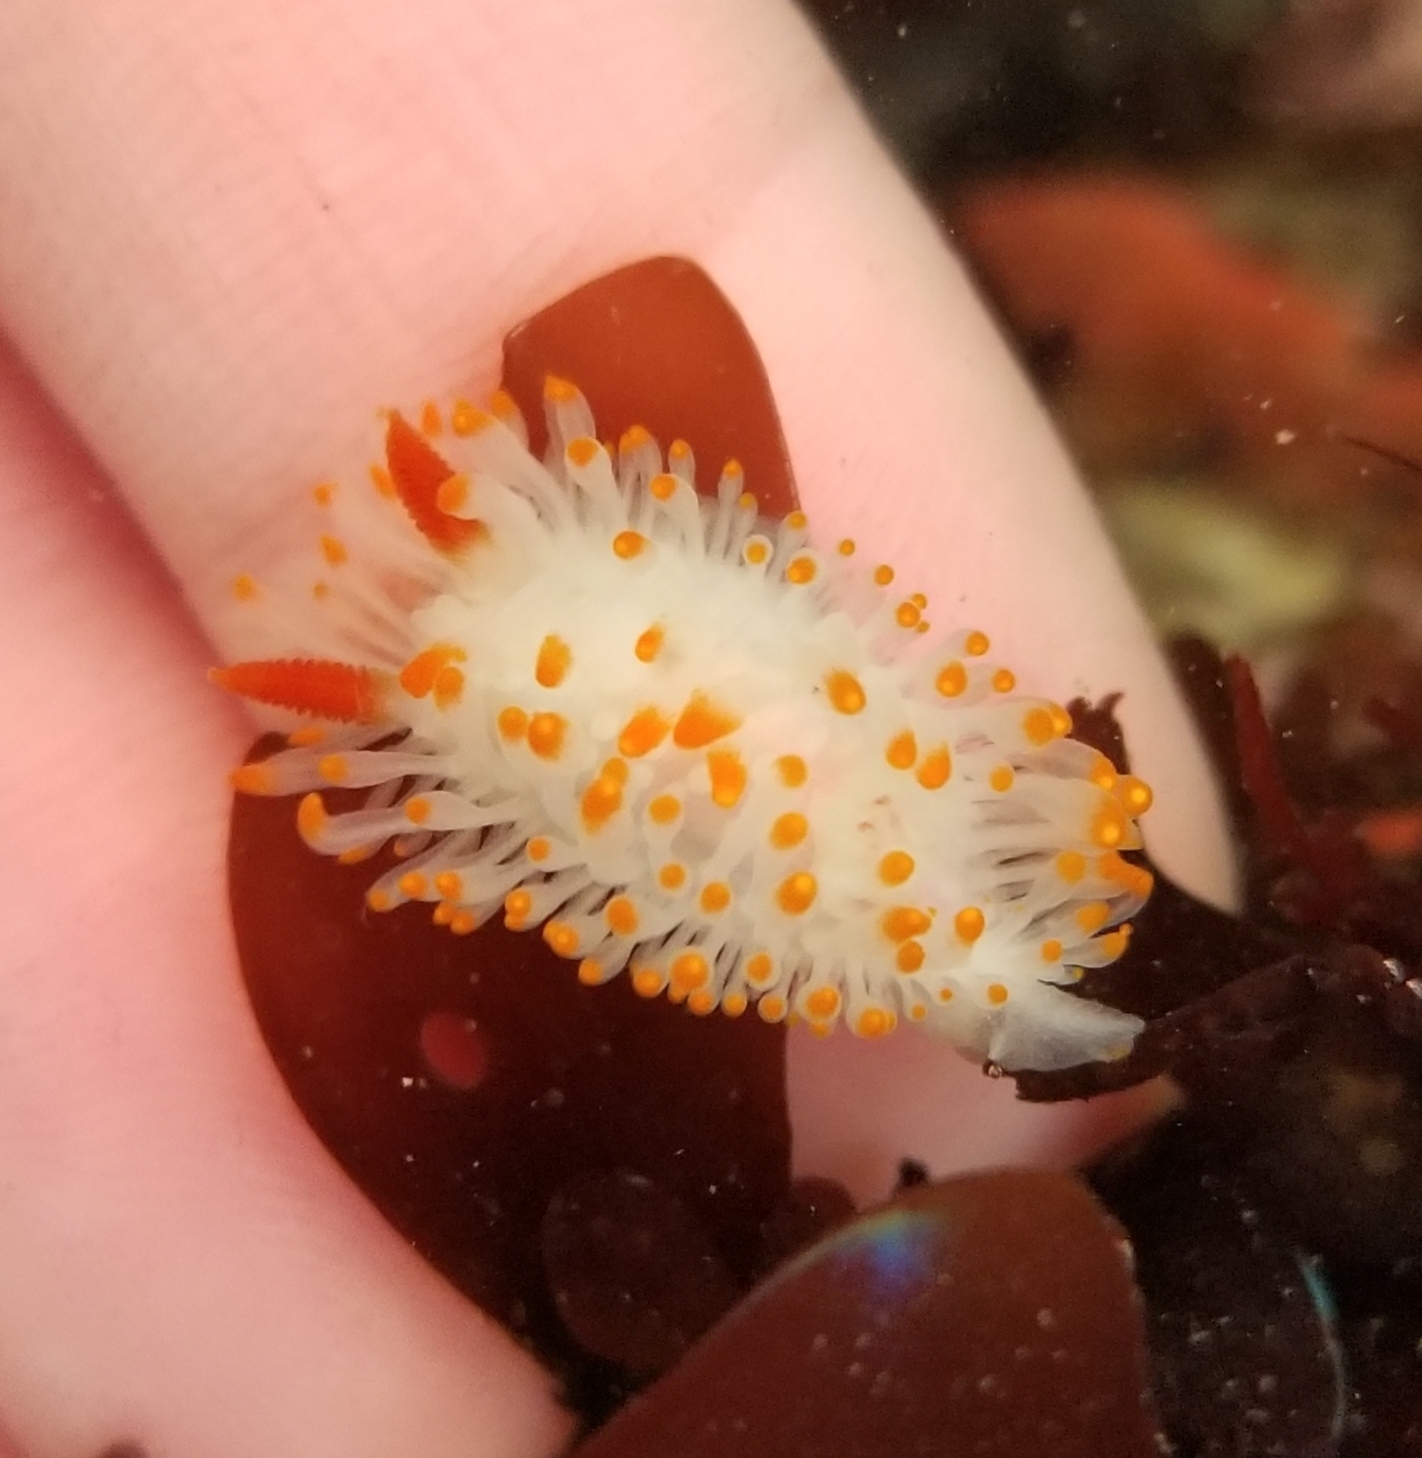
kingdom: Animalia
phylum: Mollusca
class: Gastropoda
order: Nudibranchia
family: Polyceridae
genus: Limacia
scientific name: Limacia cockerelli
